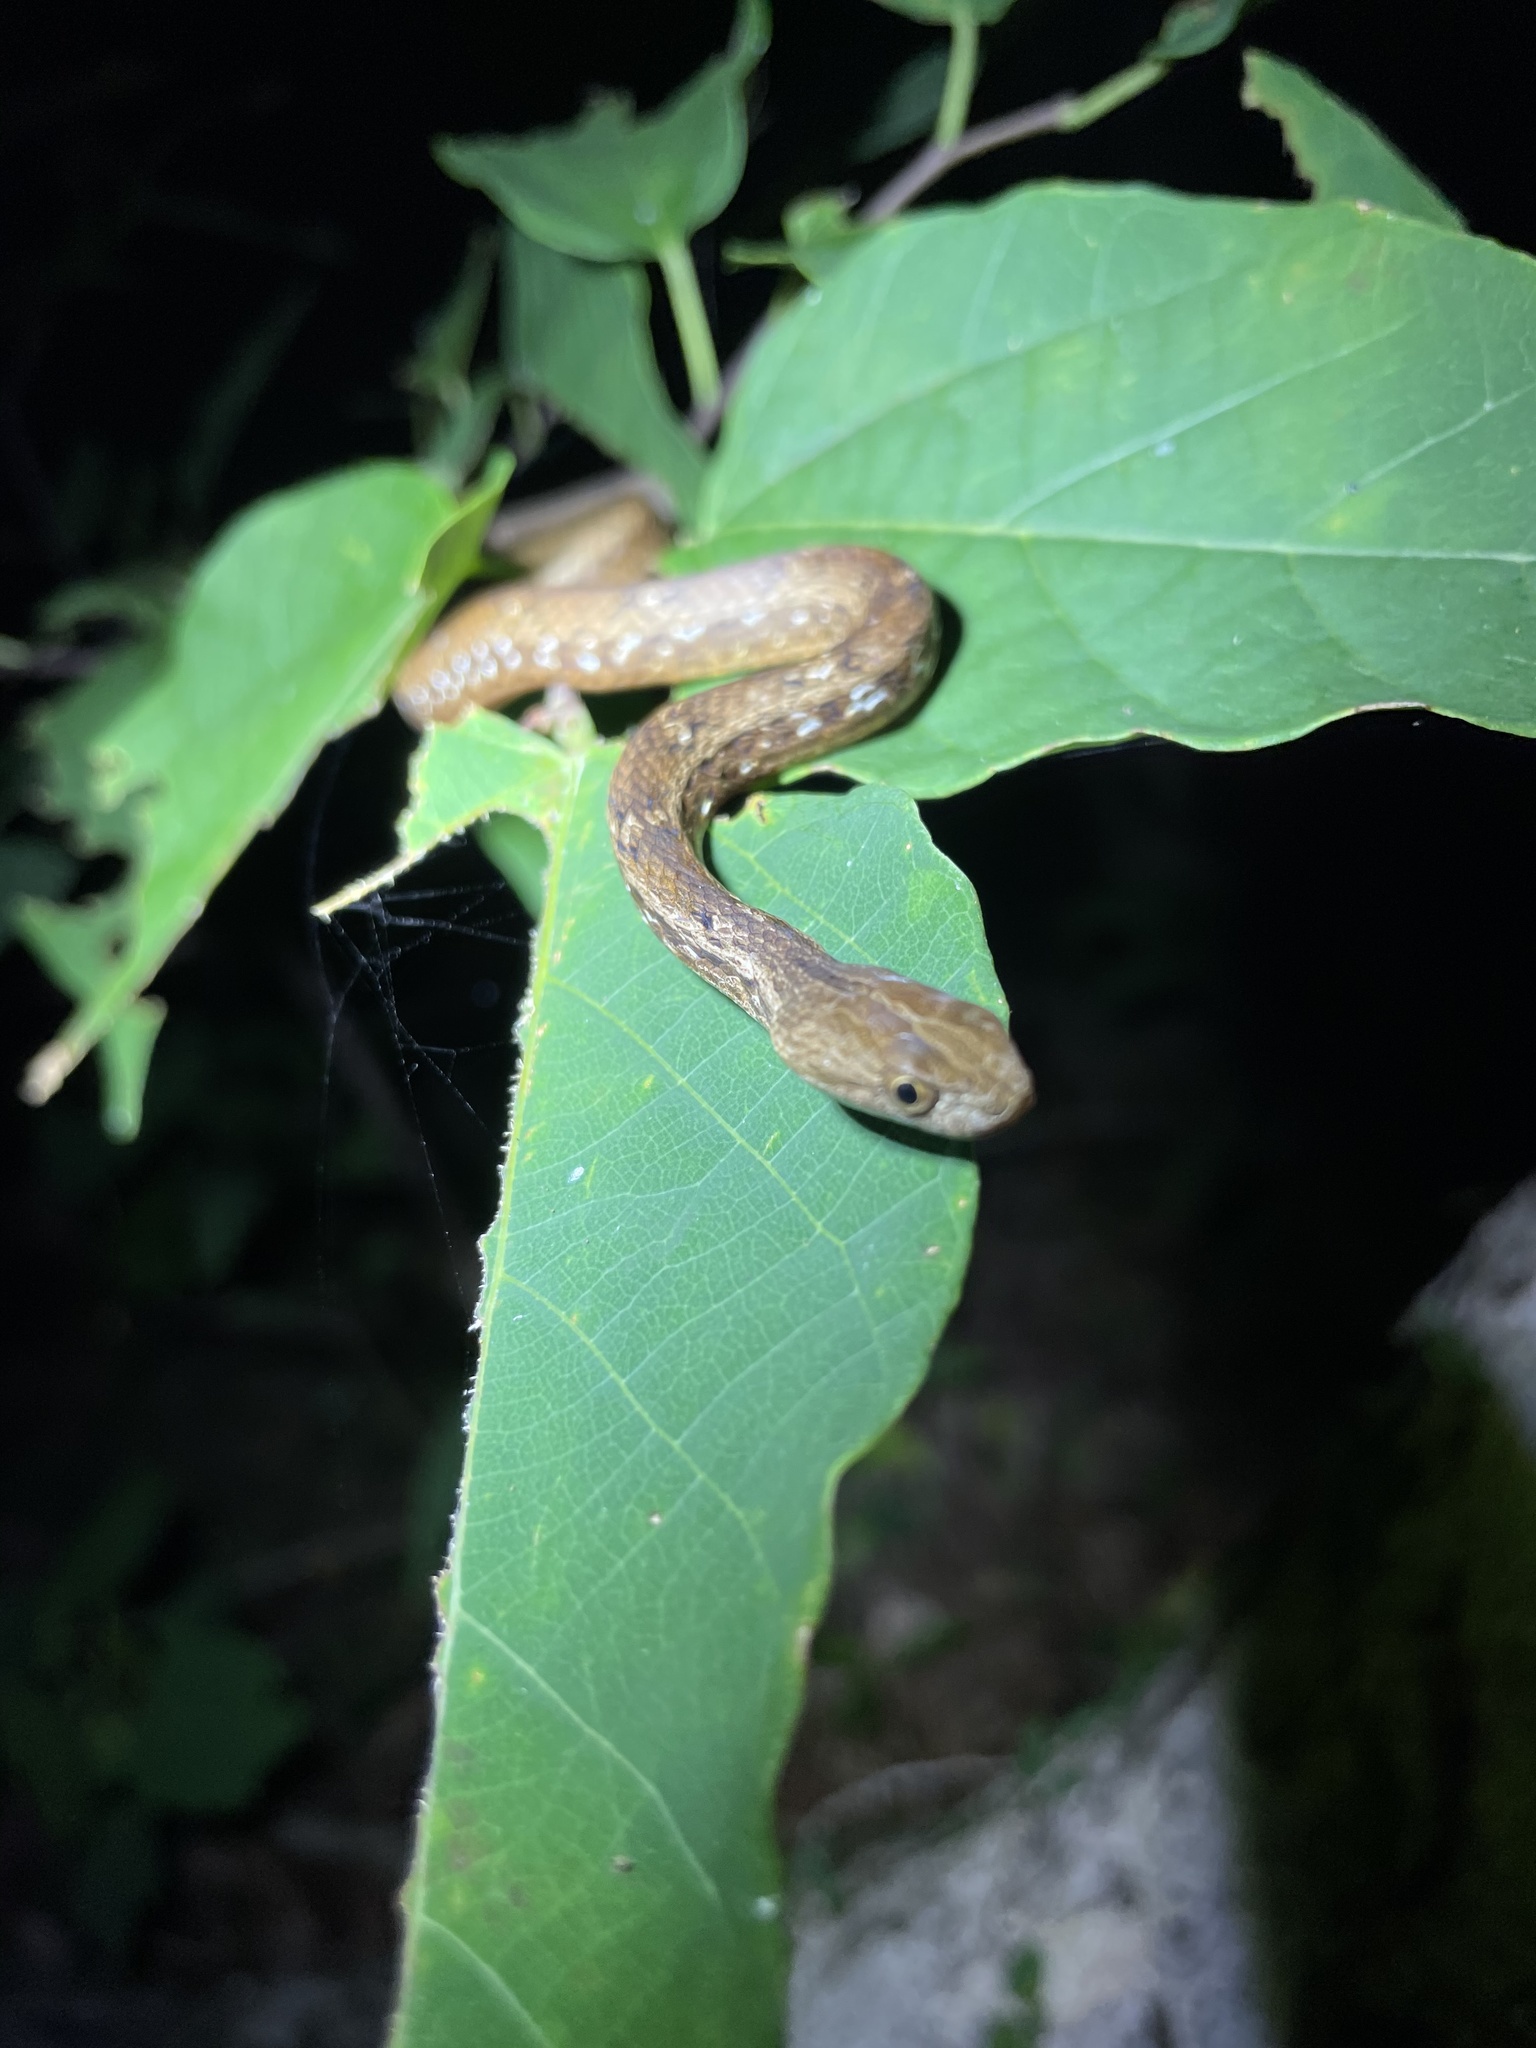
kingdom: Animalia
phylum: Chordata
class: Squamata
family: Pseudaspididae
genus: Psammodynastes
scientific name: Psammodynastes pulverulentus
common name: Common mock viper
